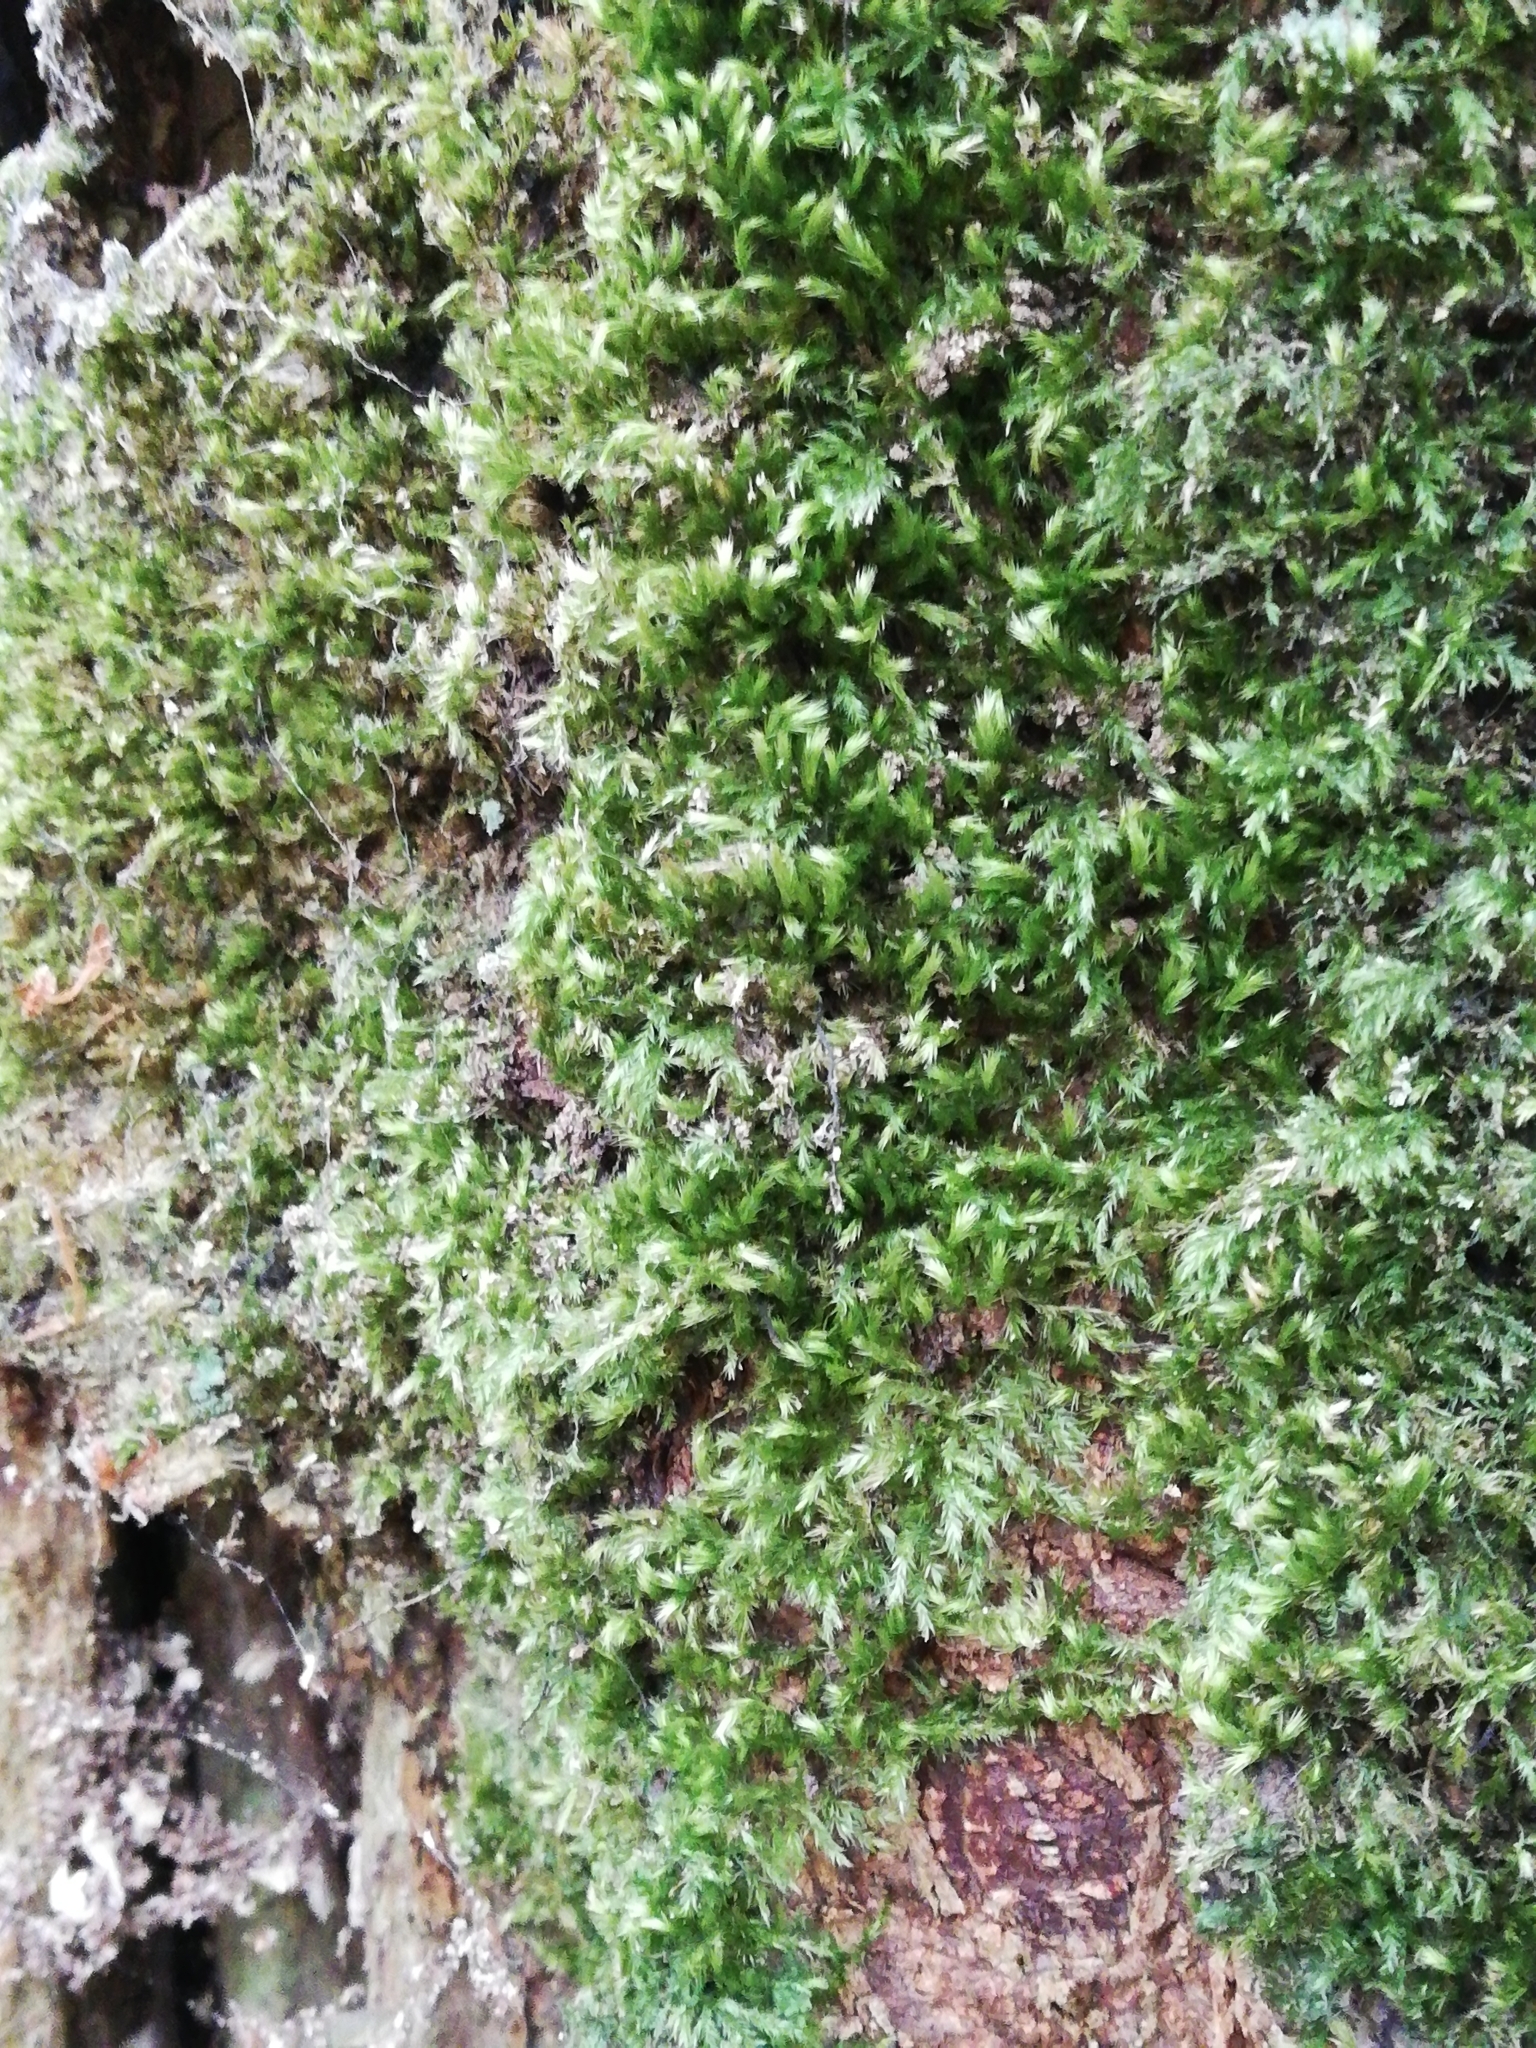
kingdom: Plantae
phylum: Bryophyta
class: Bryopsida
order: Hypnales
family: Brachytheciaceae
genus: Homalothecium
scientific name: Homalothecium sericeum
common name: Silky wall feather-moss
